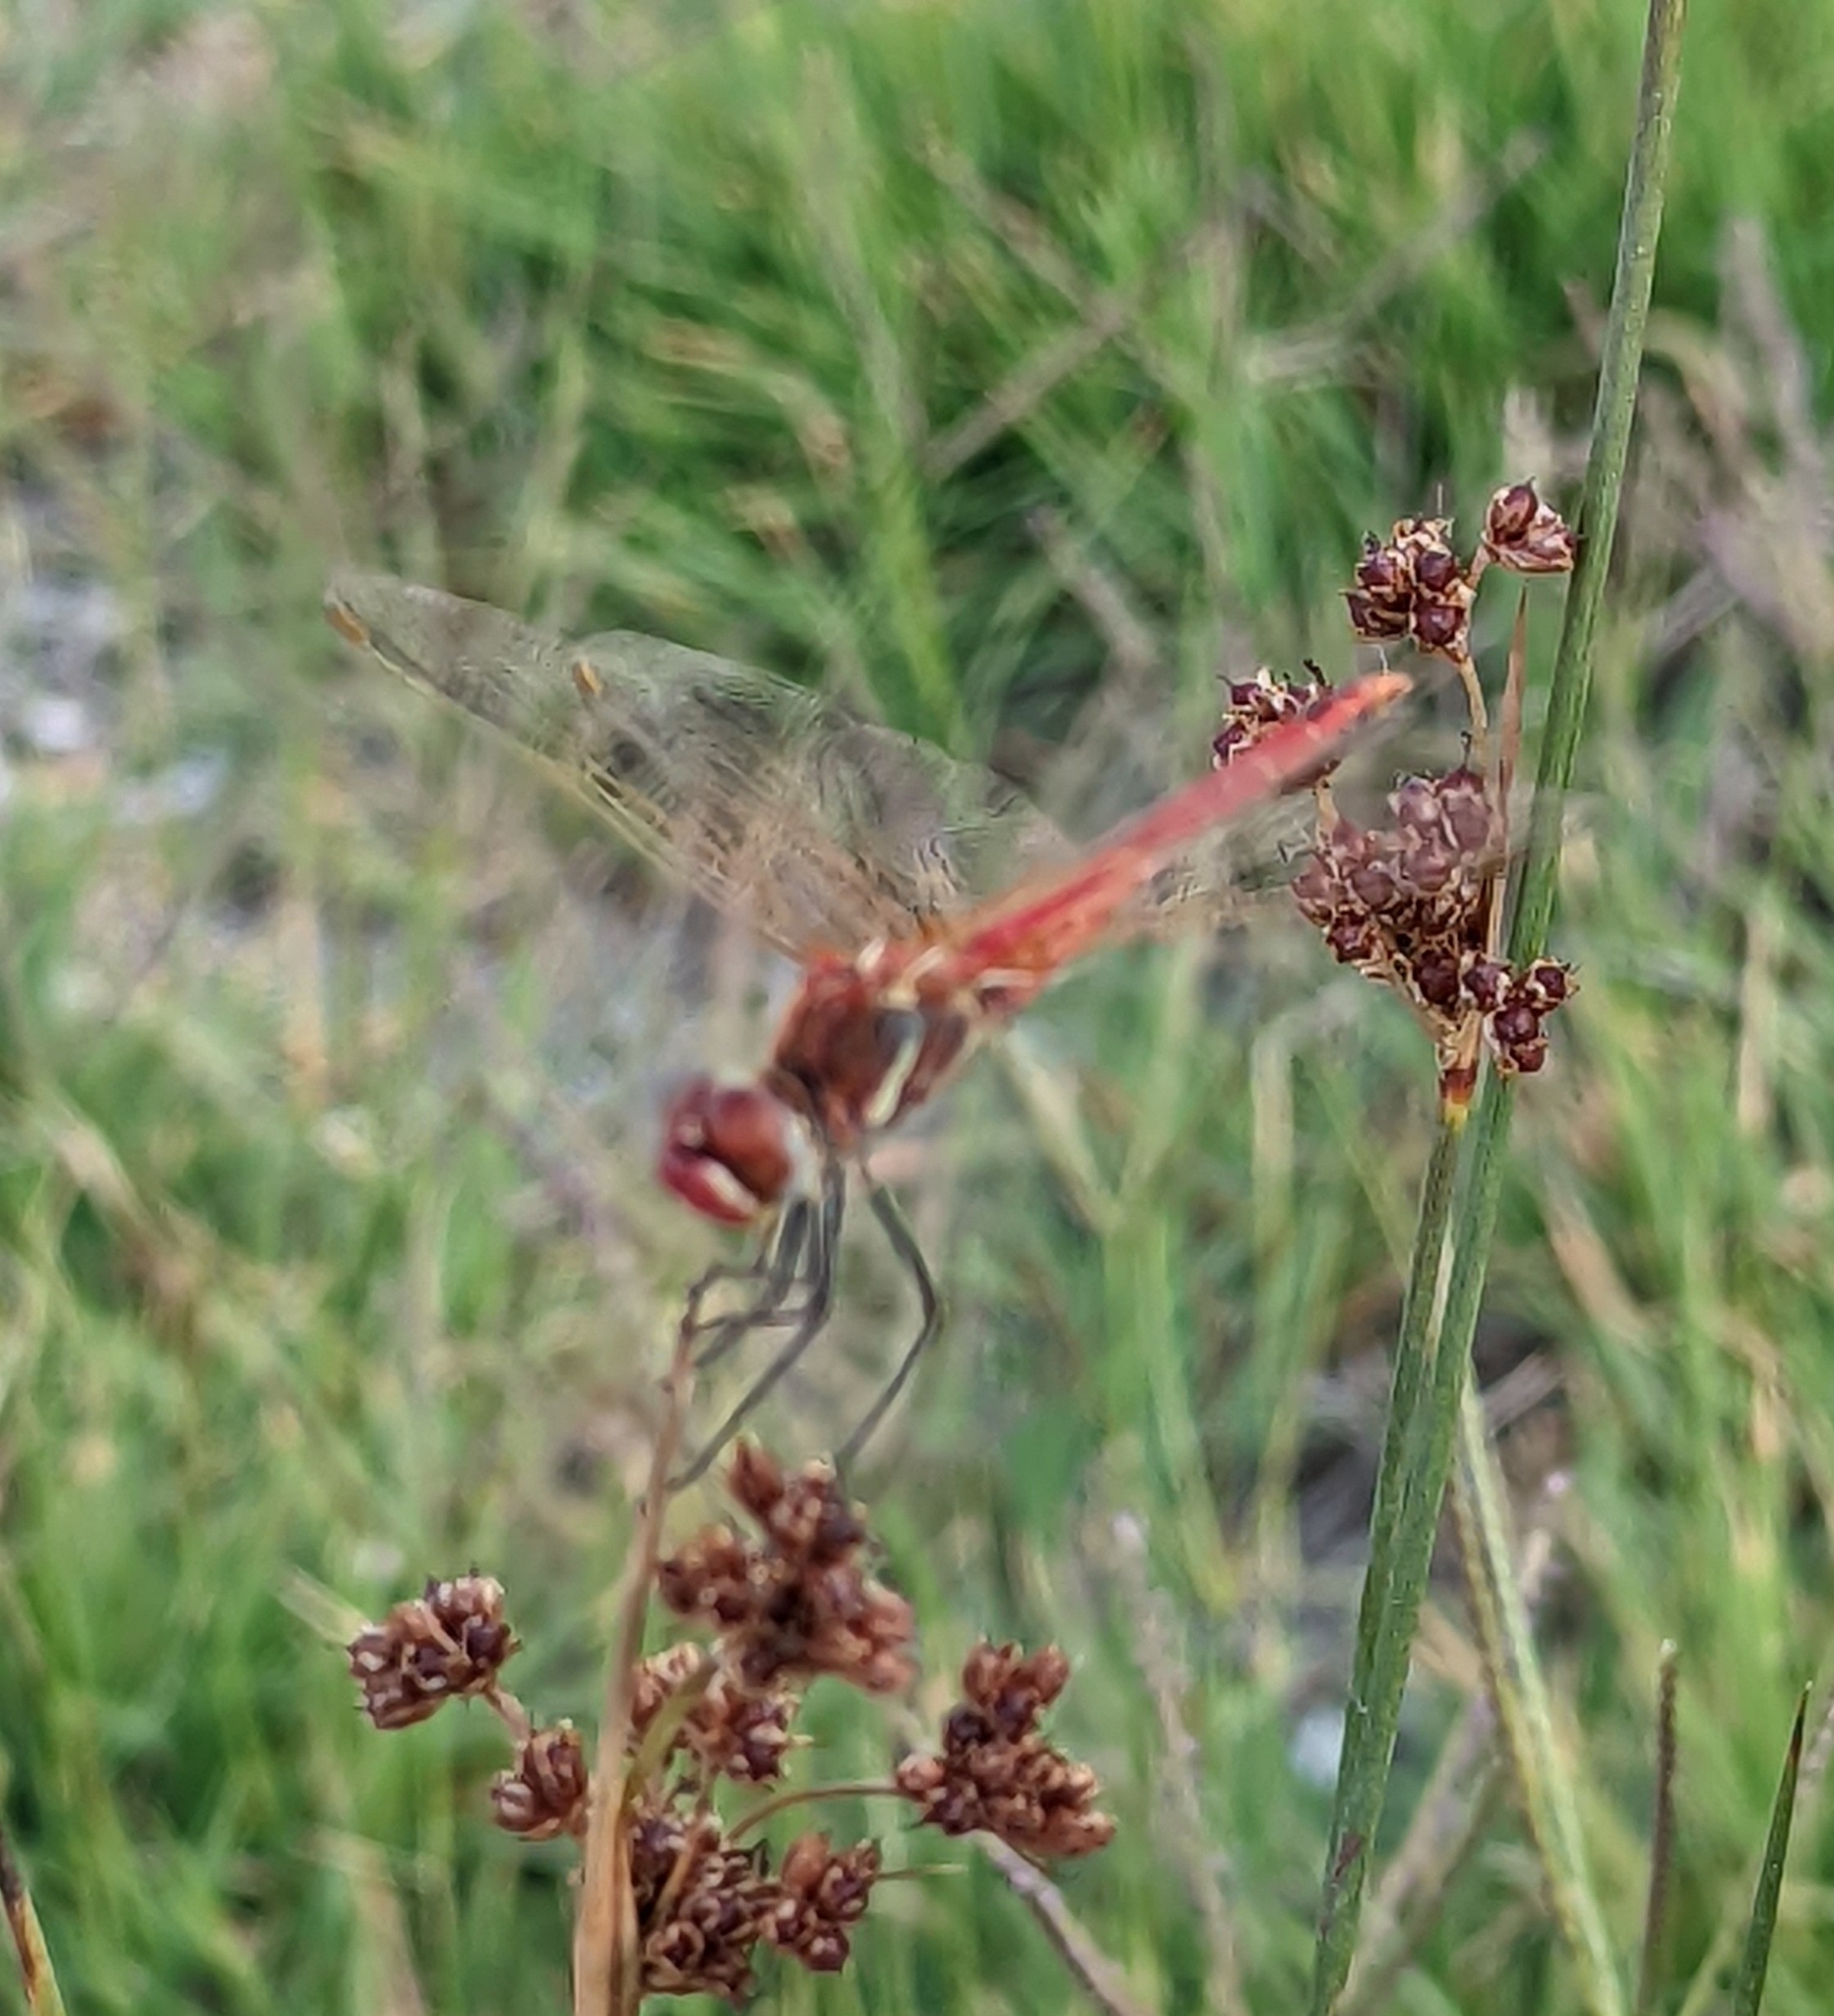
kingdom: Animalia
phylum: Arthropoda
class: Insecta
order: Odonata
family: Libellulidae
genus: Sympetrum
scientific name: Sympetrum fonscolombii
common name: Red-veined darter
